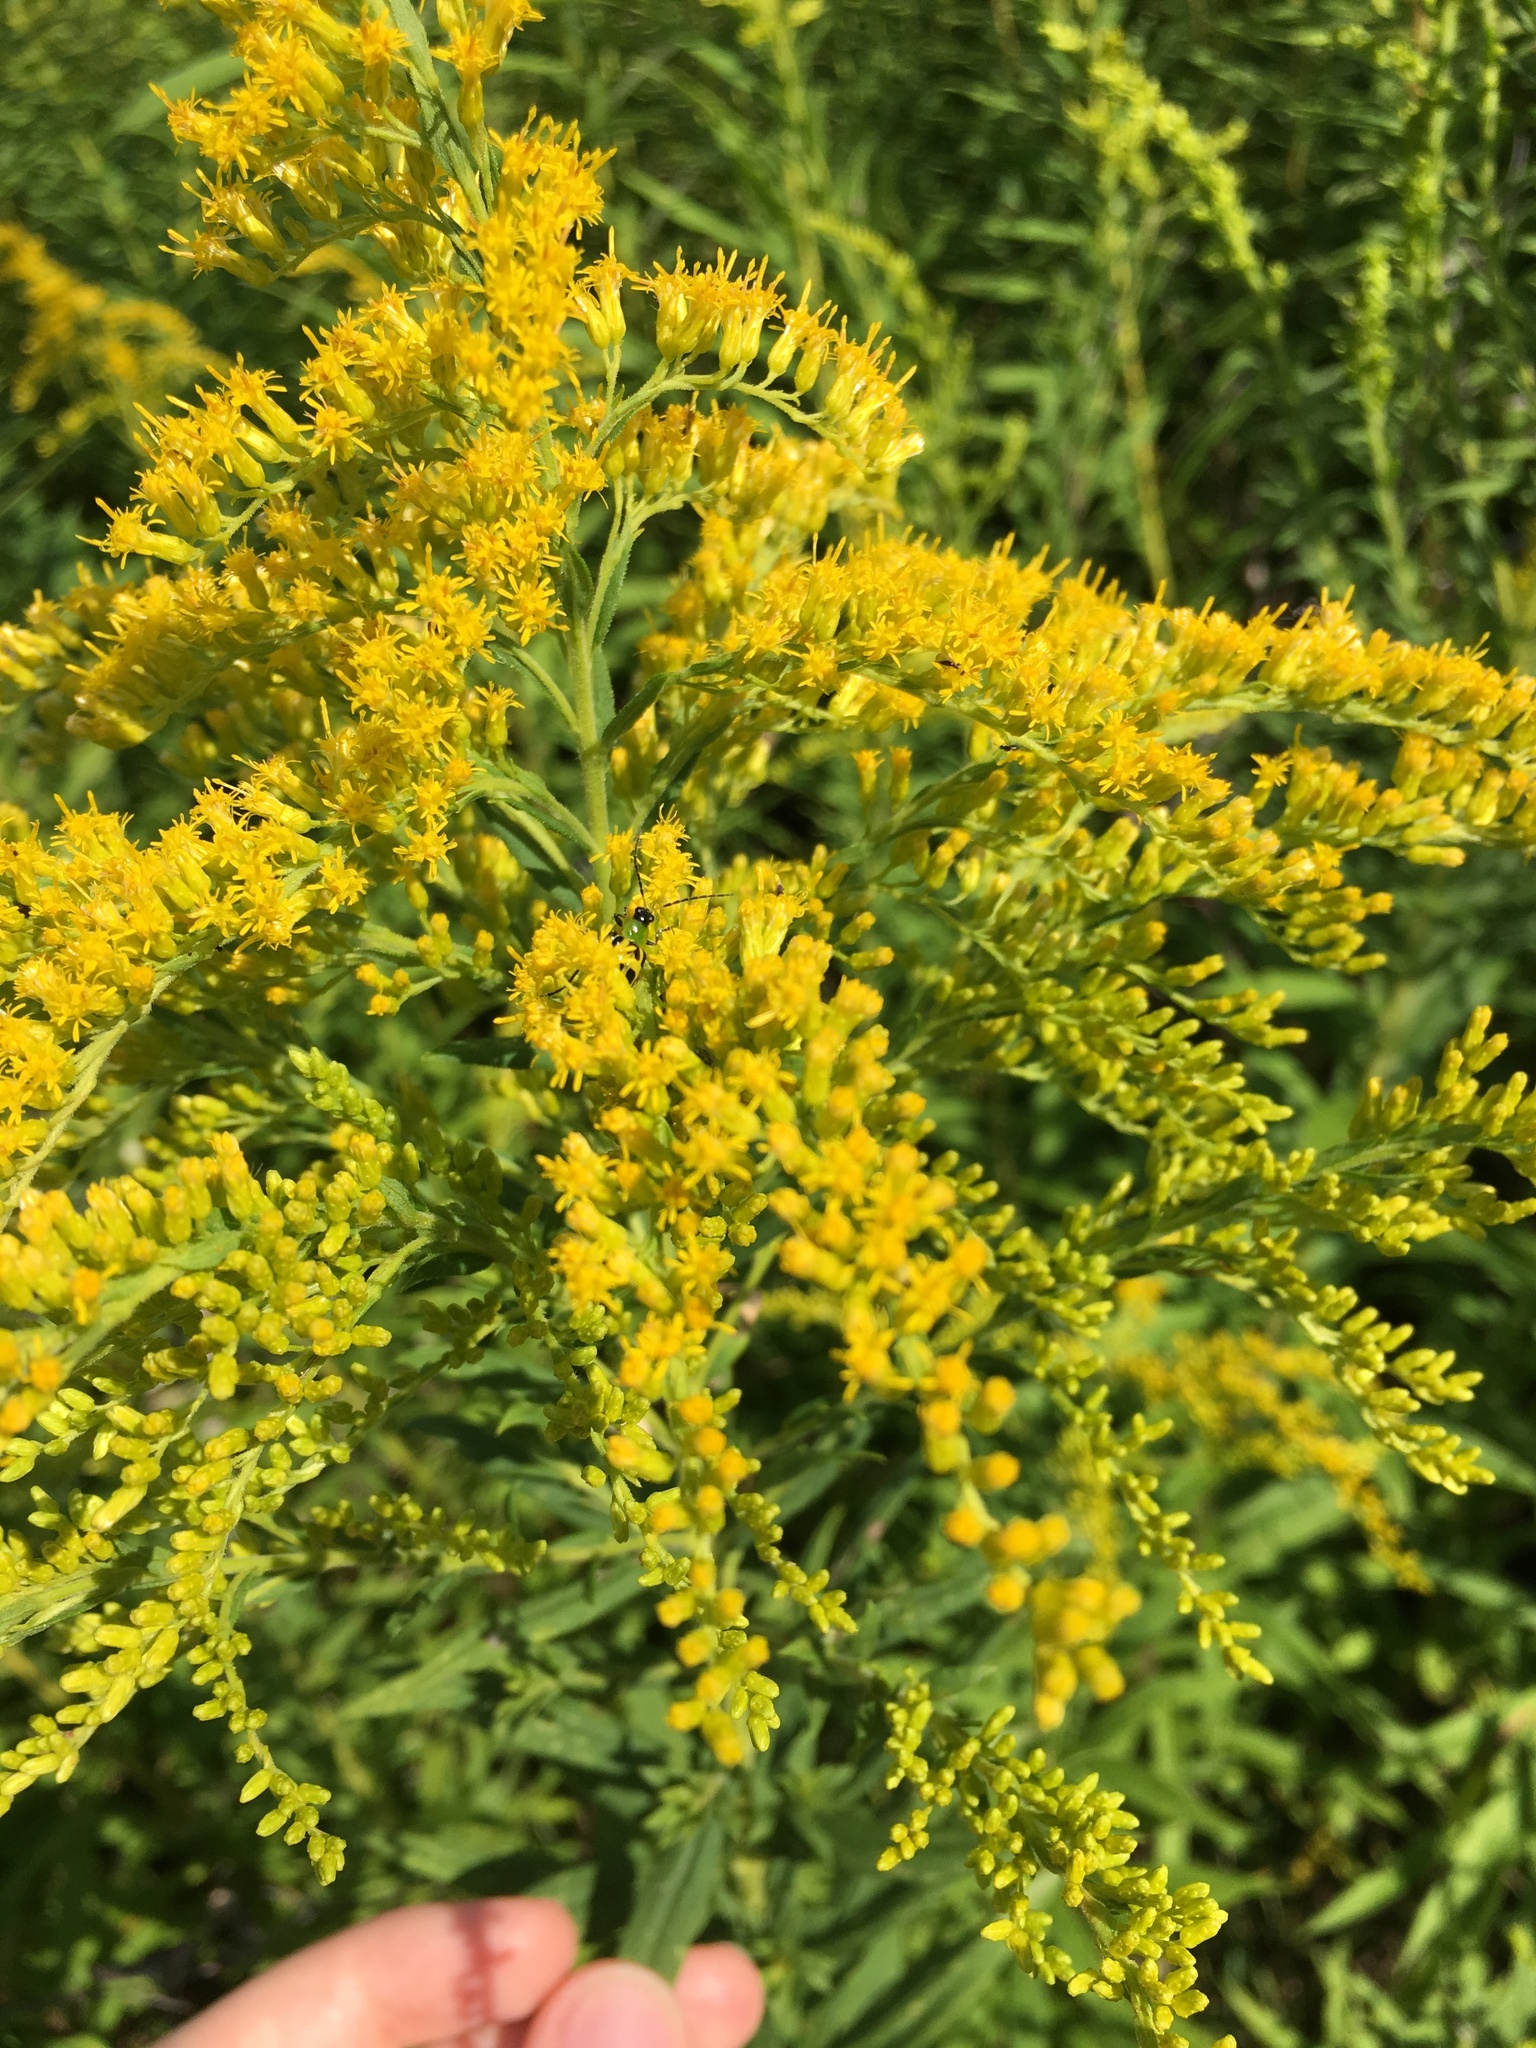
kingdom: Plantae
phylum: Tracheophyta
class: Magnoliopsida
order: Asterales
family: Asteraceae
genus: Solidago
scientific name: Solidago canadensis
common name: Canada goldenrod
